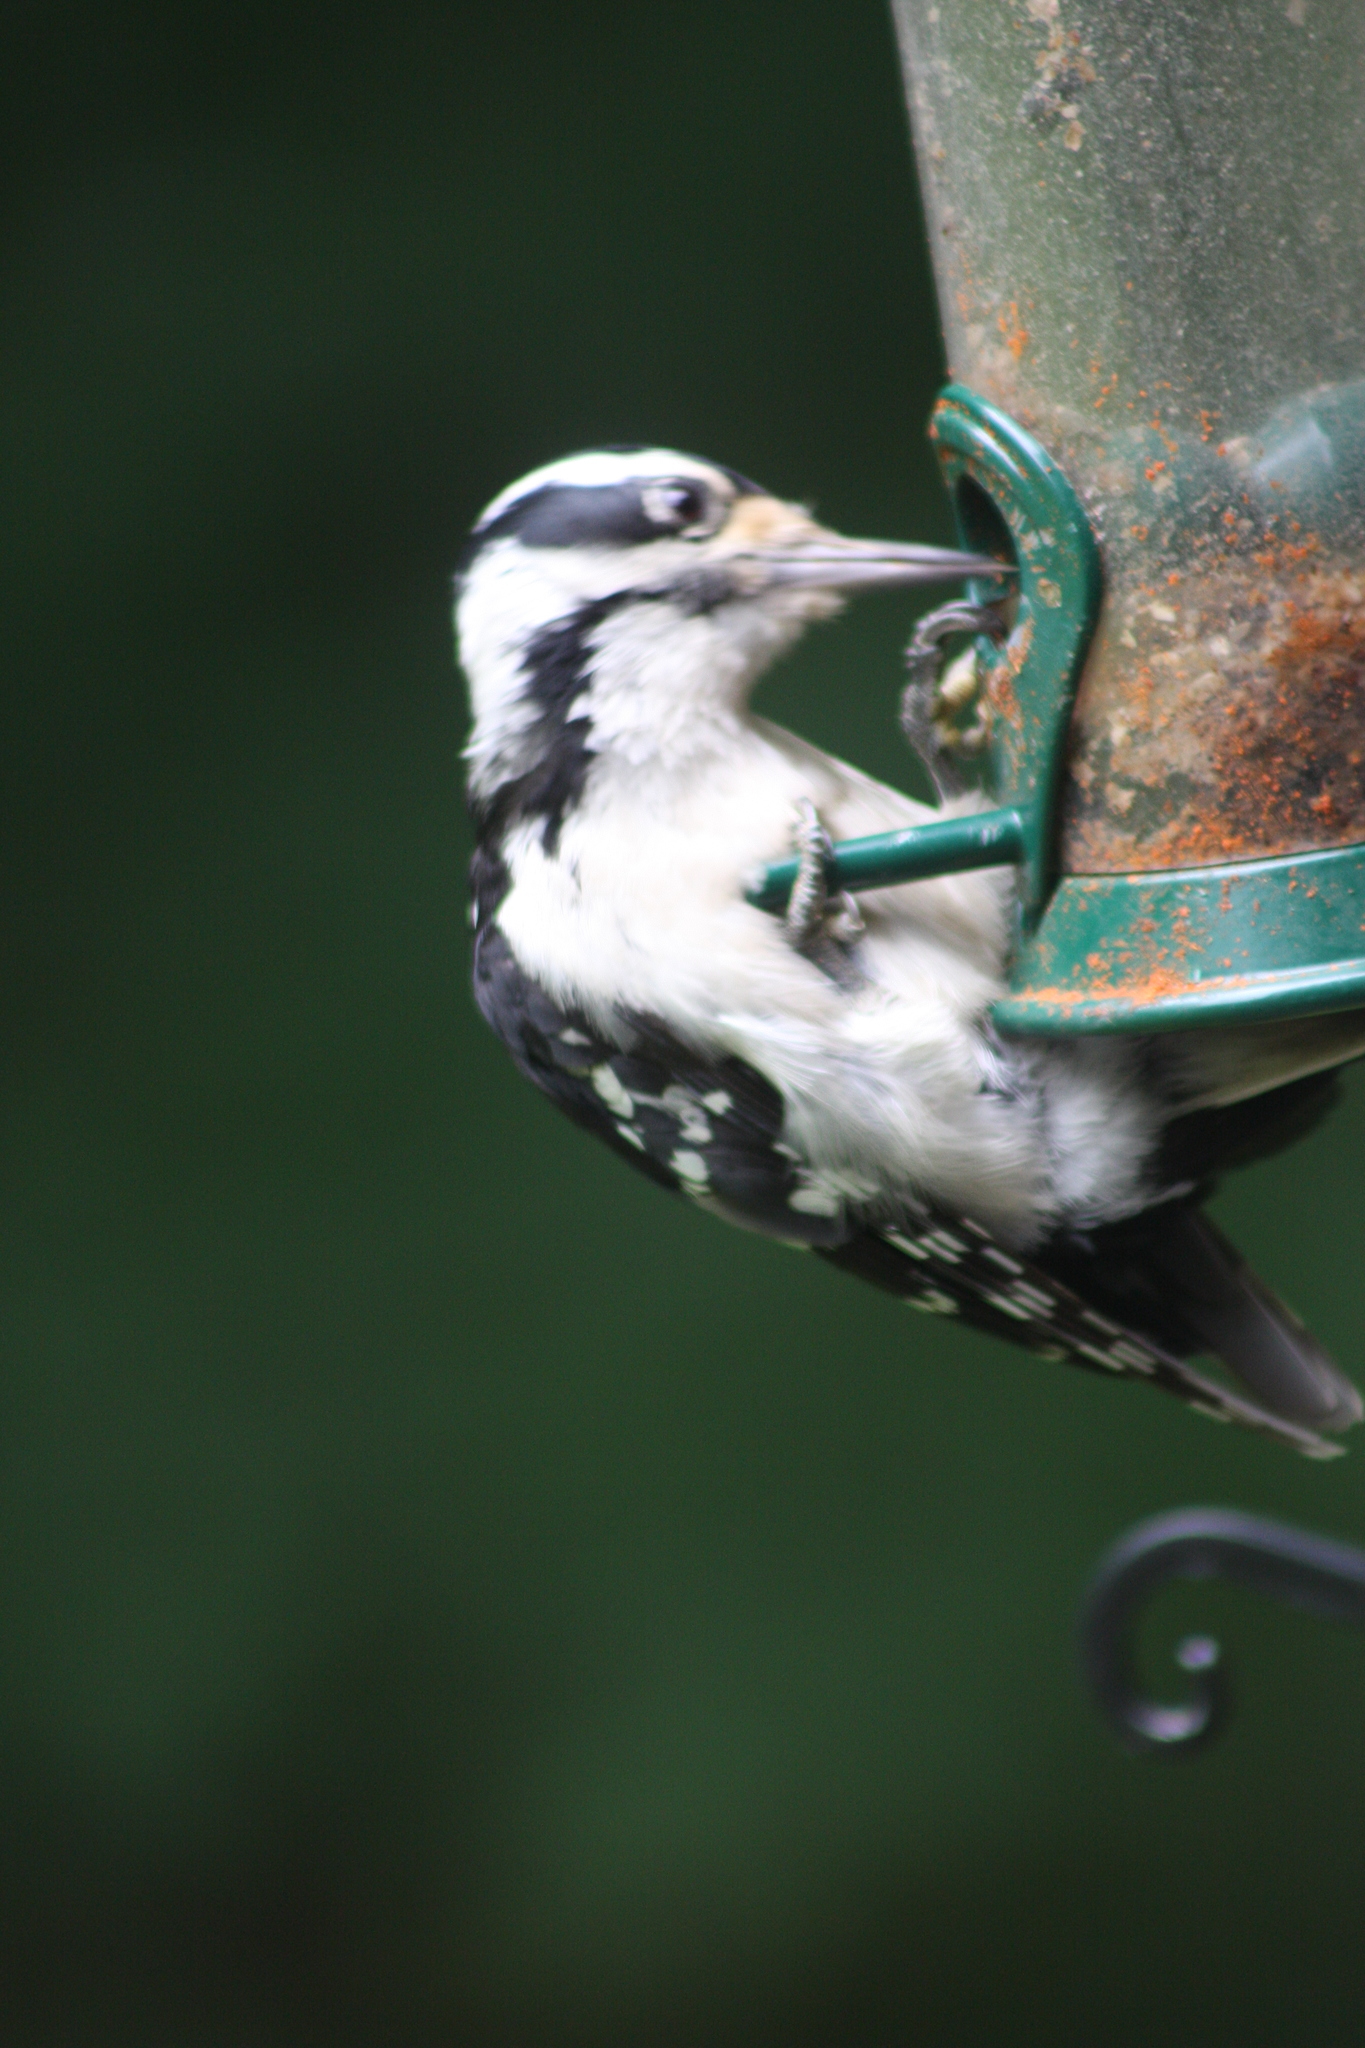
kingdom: Animalia
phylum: Chordata
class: Aves
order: Piciformes
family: Picidae
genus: Leuconotopicus
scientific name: Leuconotopicus villosus
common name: Hairy woodpecker
